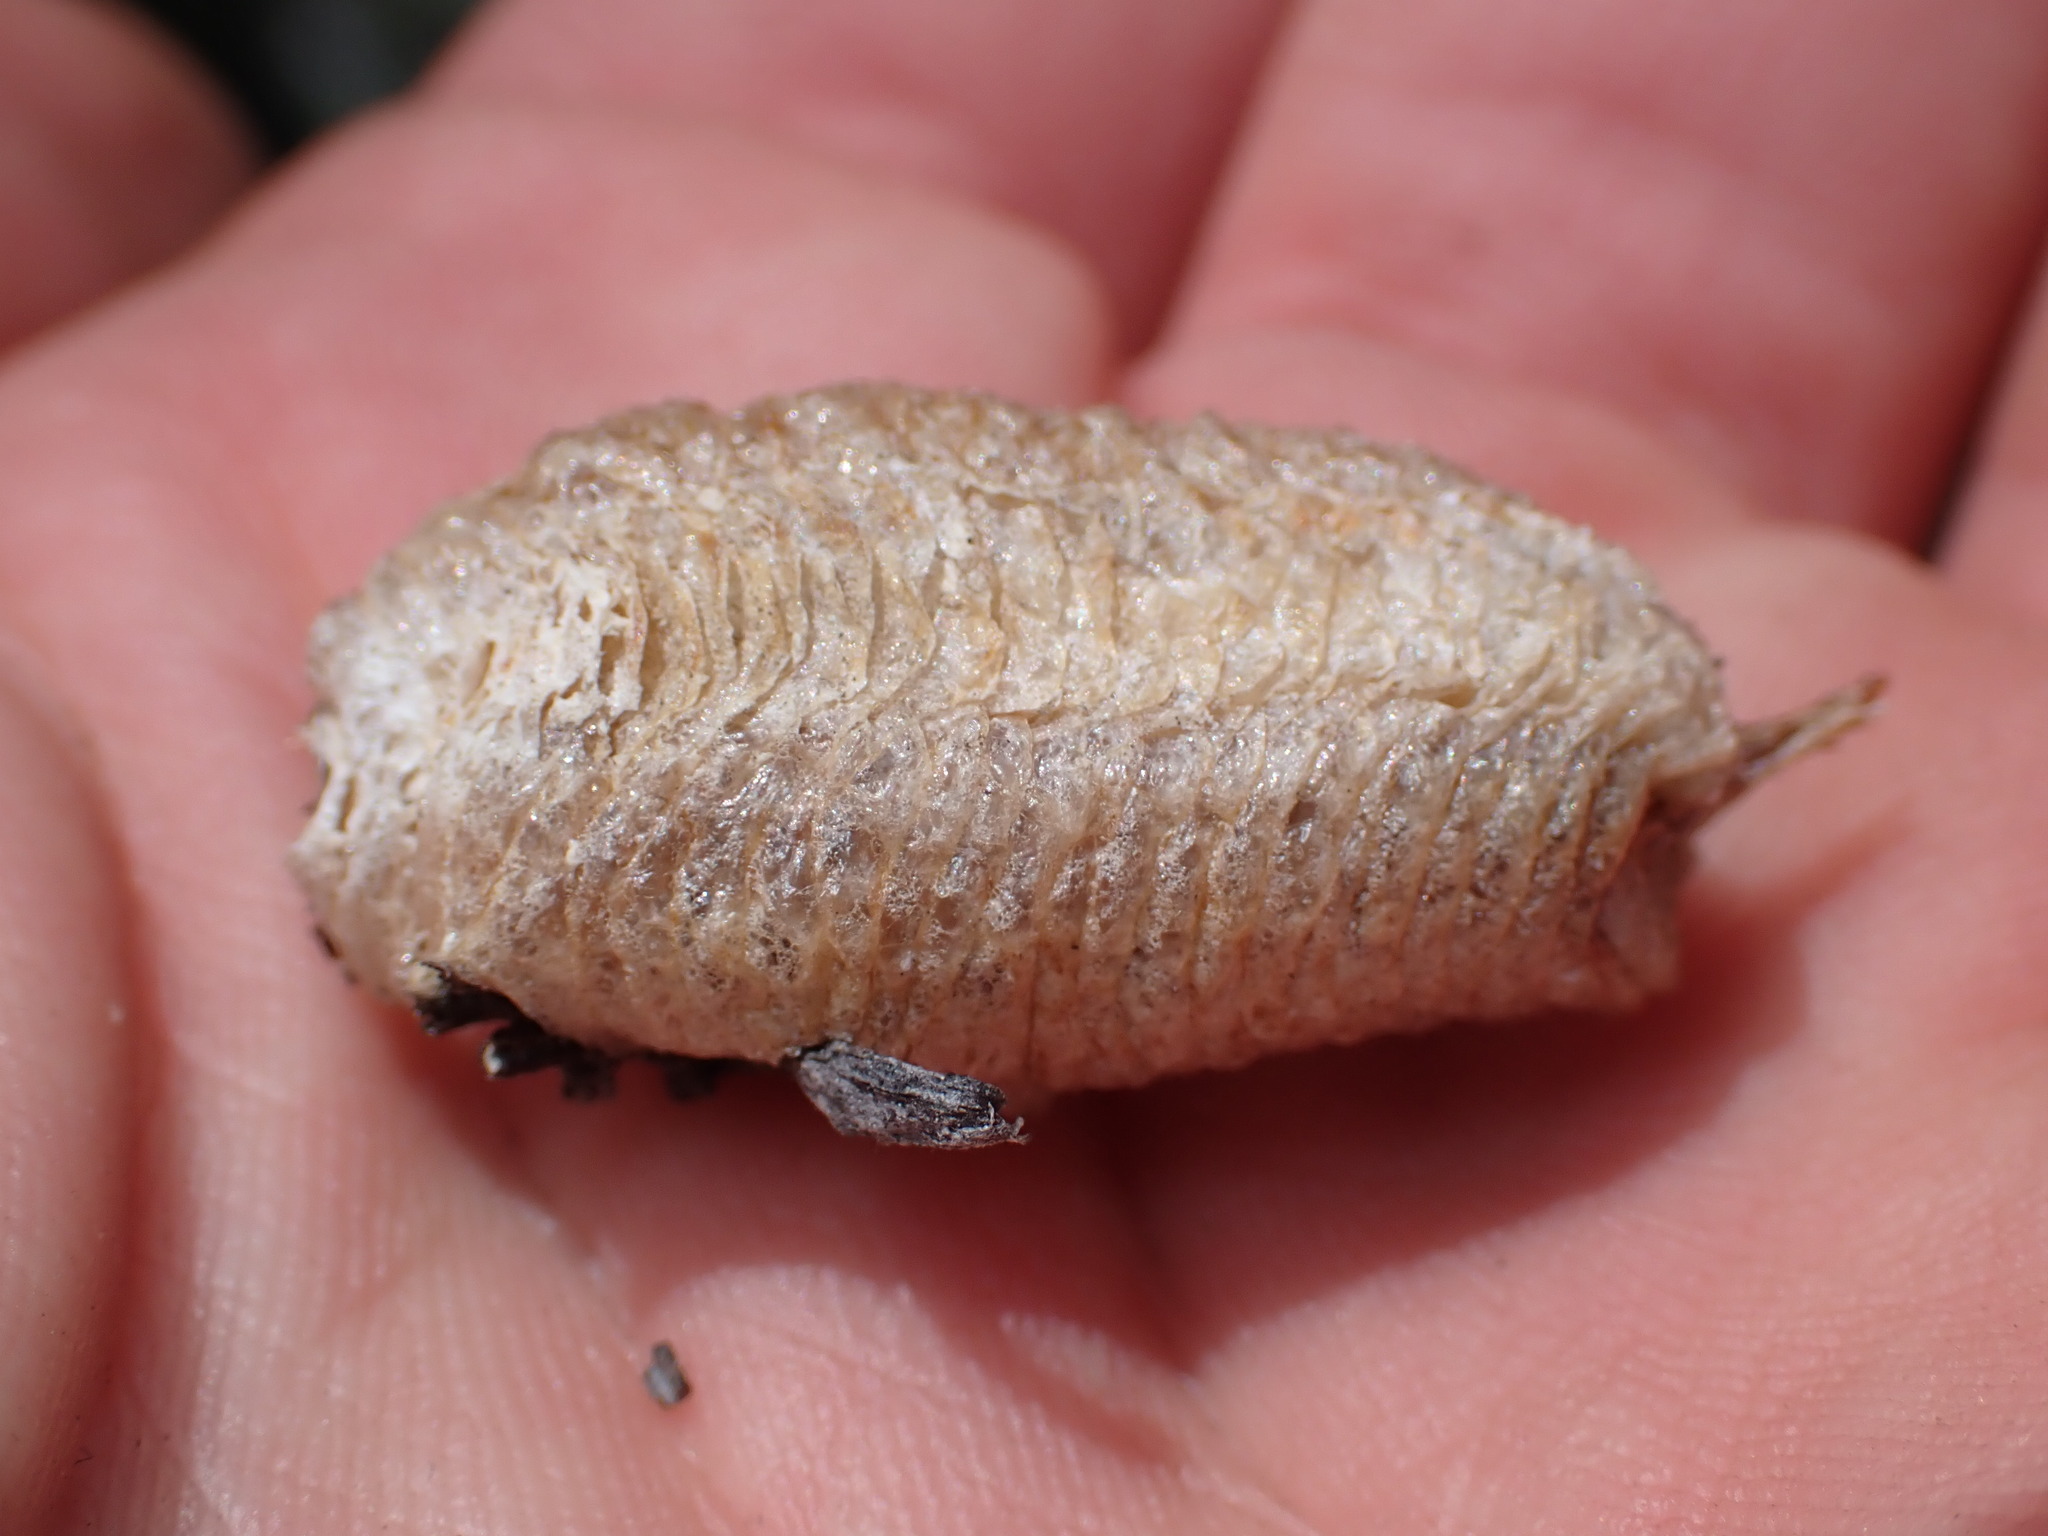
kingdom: Animalia
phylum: Arthropoda
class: Insecta
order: Mantodea
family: Mantidae
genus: Mantis
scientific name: Mantis religiosa
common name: Praying mantis
